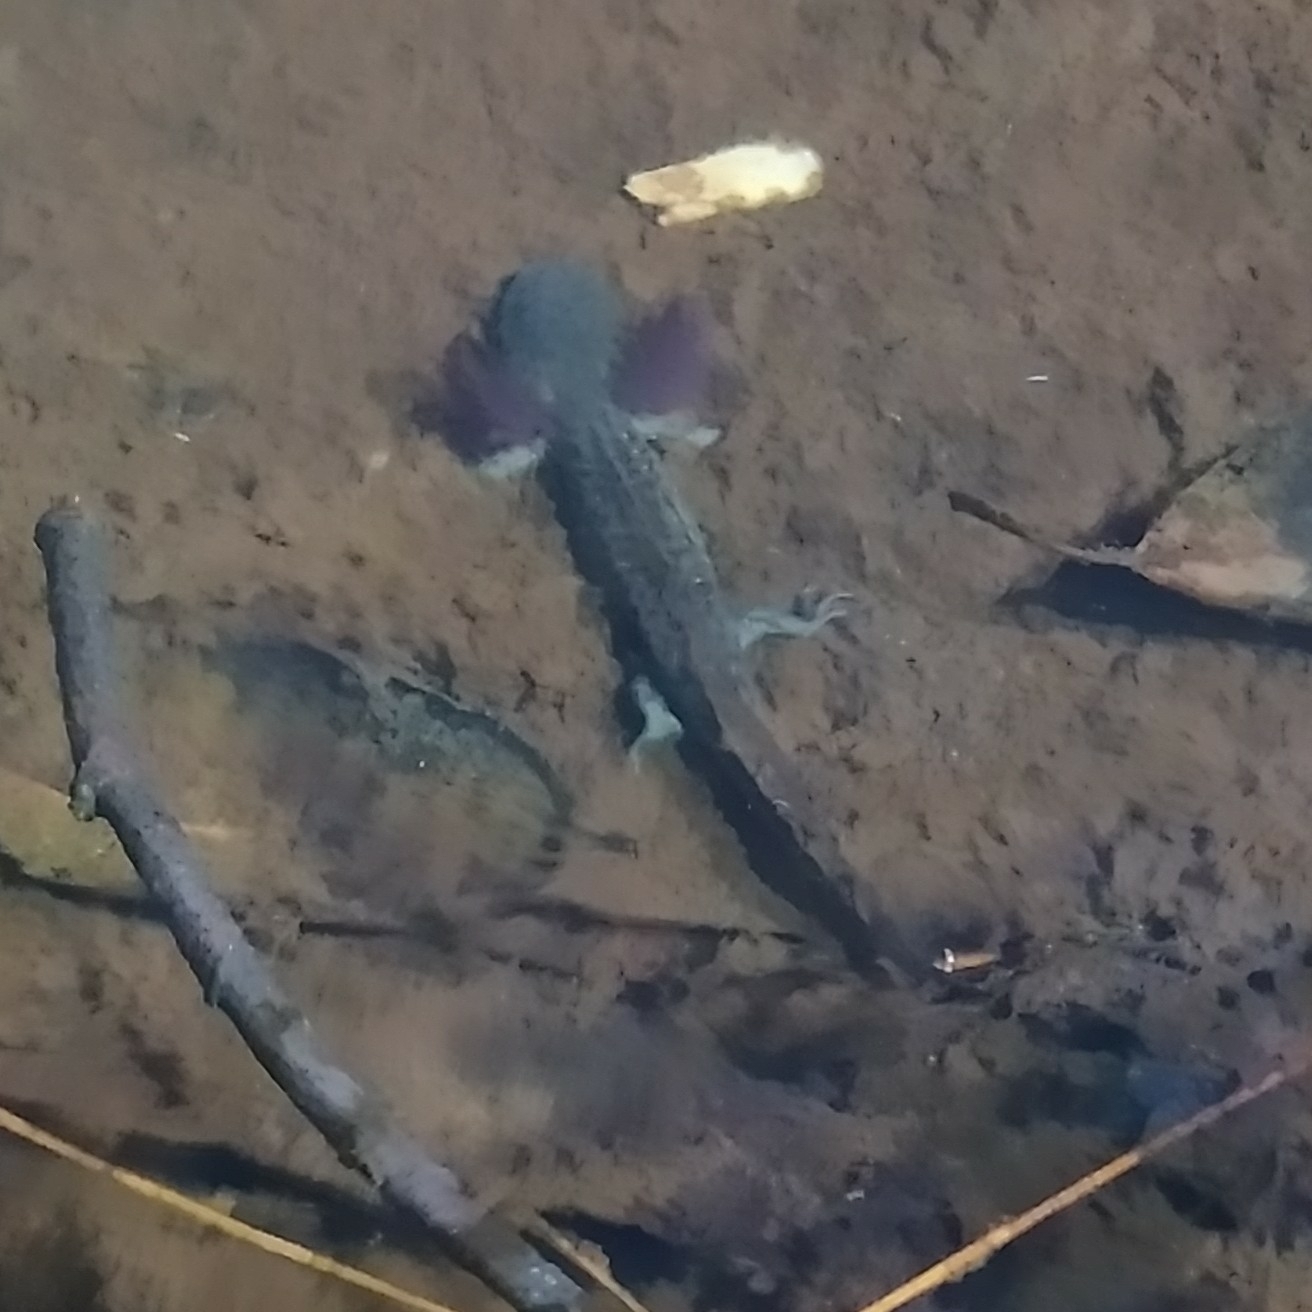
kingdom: Animalia
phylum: Chordata
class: Amphibia
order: Caudata
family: Ambystomatidae
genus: Ambystoma
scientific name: Ambystoma flavipiperatum
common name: Yellow-peppered salamander
